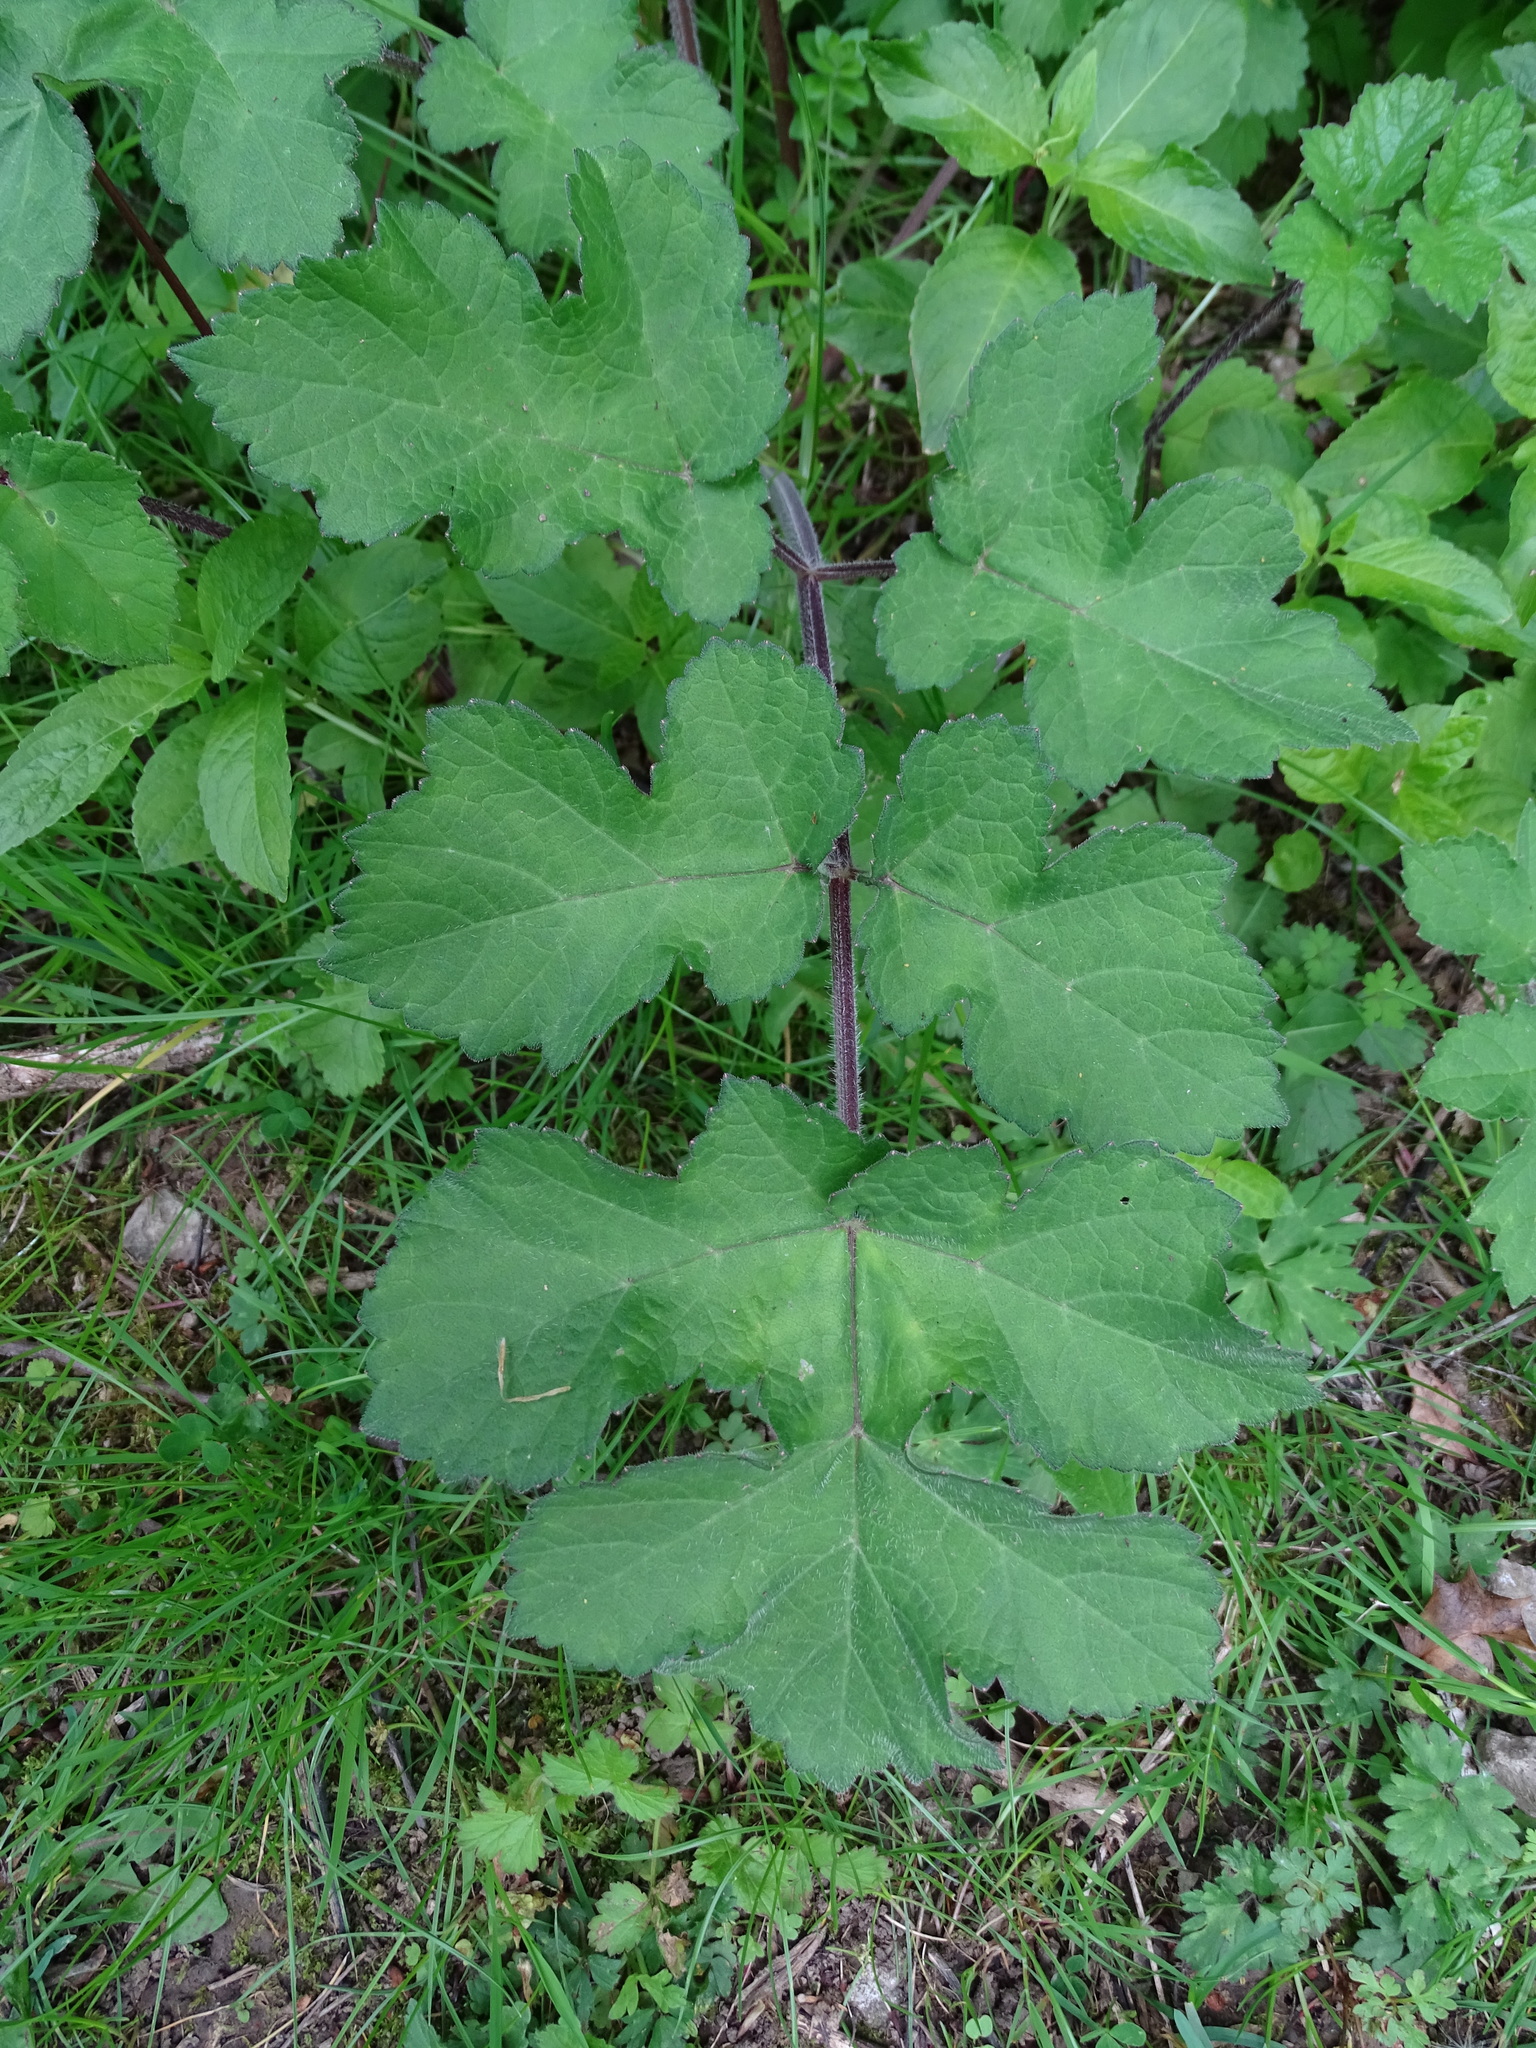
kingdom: Plantae
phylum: Tracheophyta
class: Magnoliopsida
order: Apiales
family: Apiaceae
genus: Heracleum
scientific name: Heracleum sphondylium
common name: Hogweed
